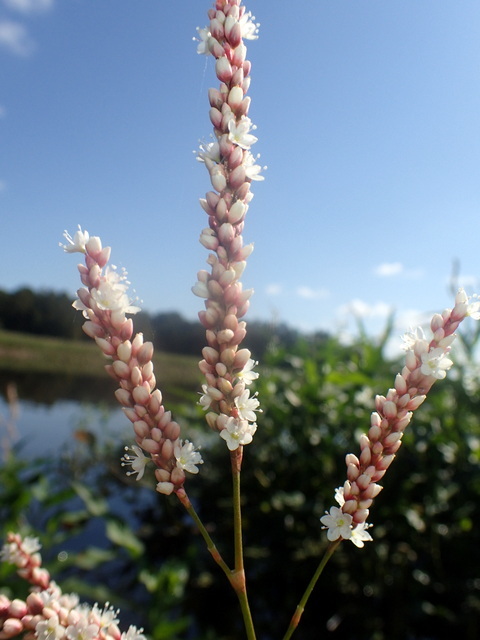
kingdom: Plantae
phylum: Tracheophyta
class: Magnoliopsida
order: Caryophyllales
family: Polygonaceae
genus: Persicaria
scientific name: Persicaria hydropiperoides
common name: Swamp smartweed
